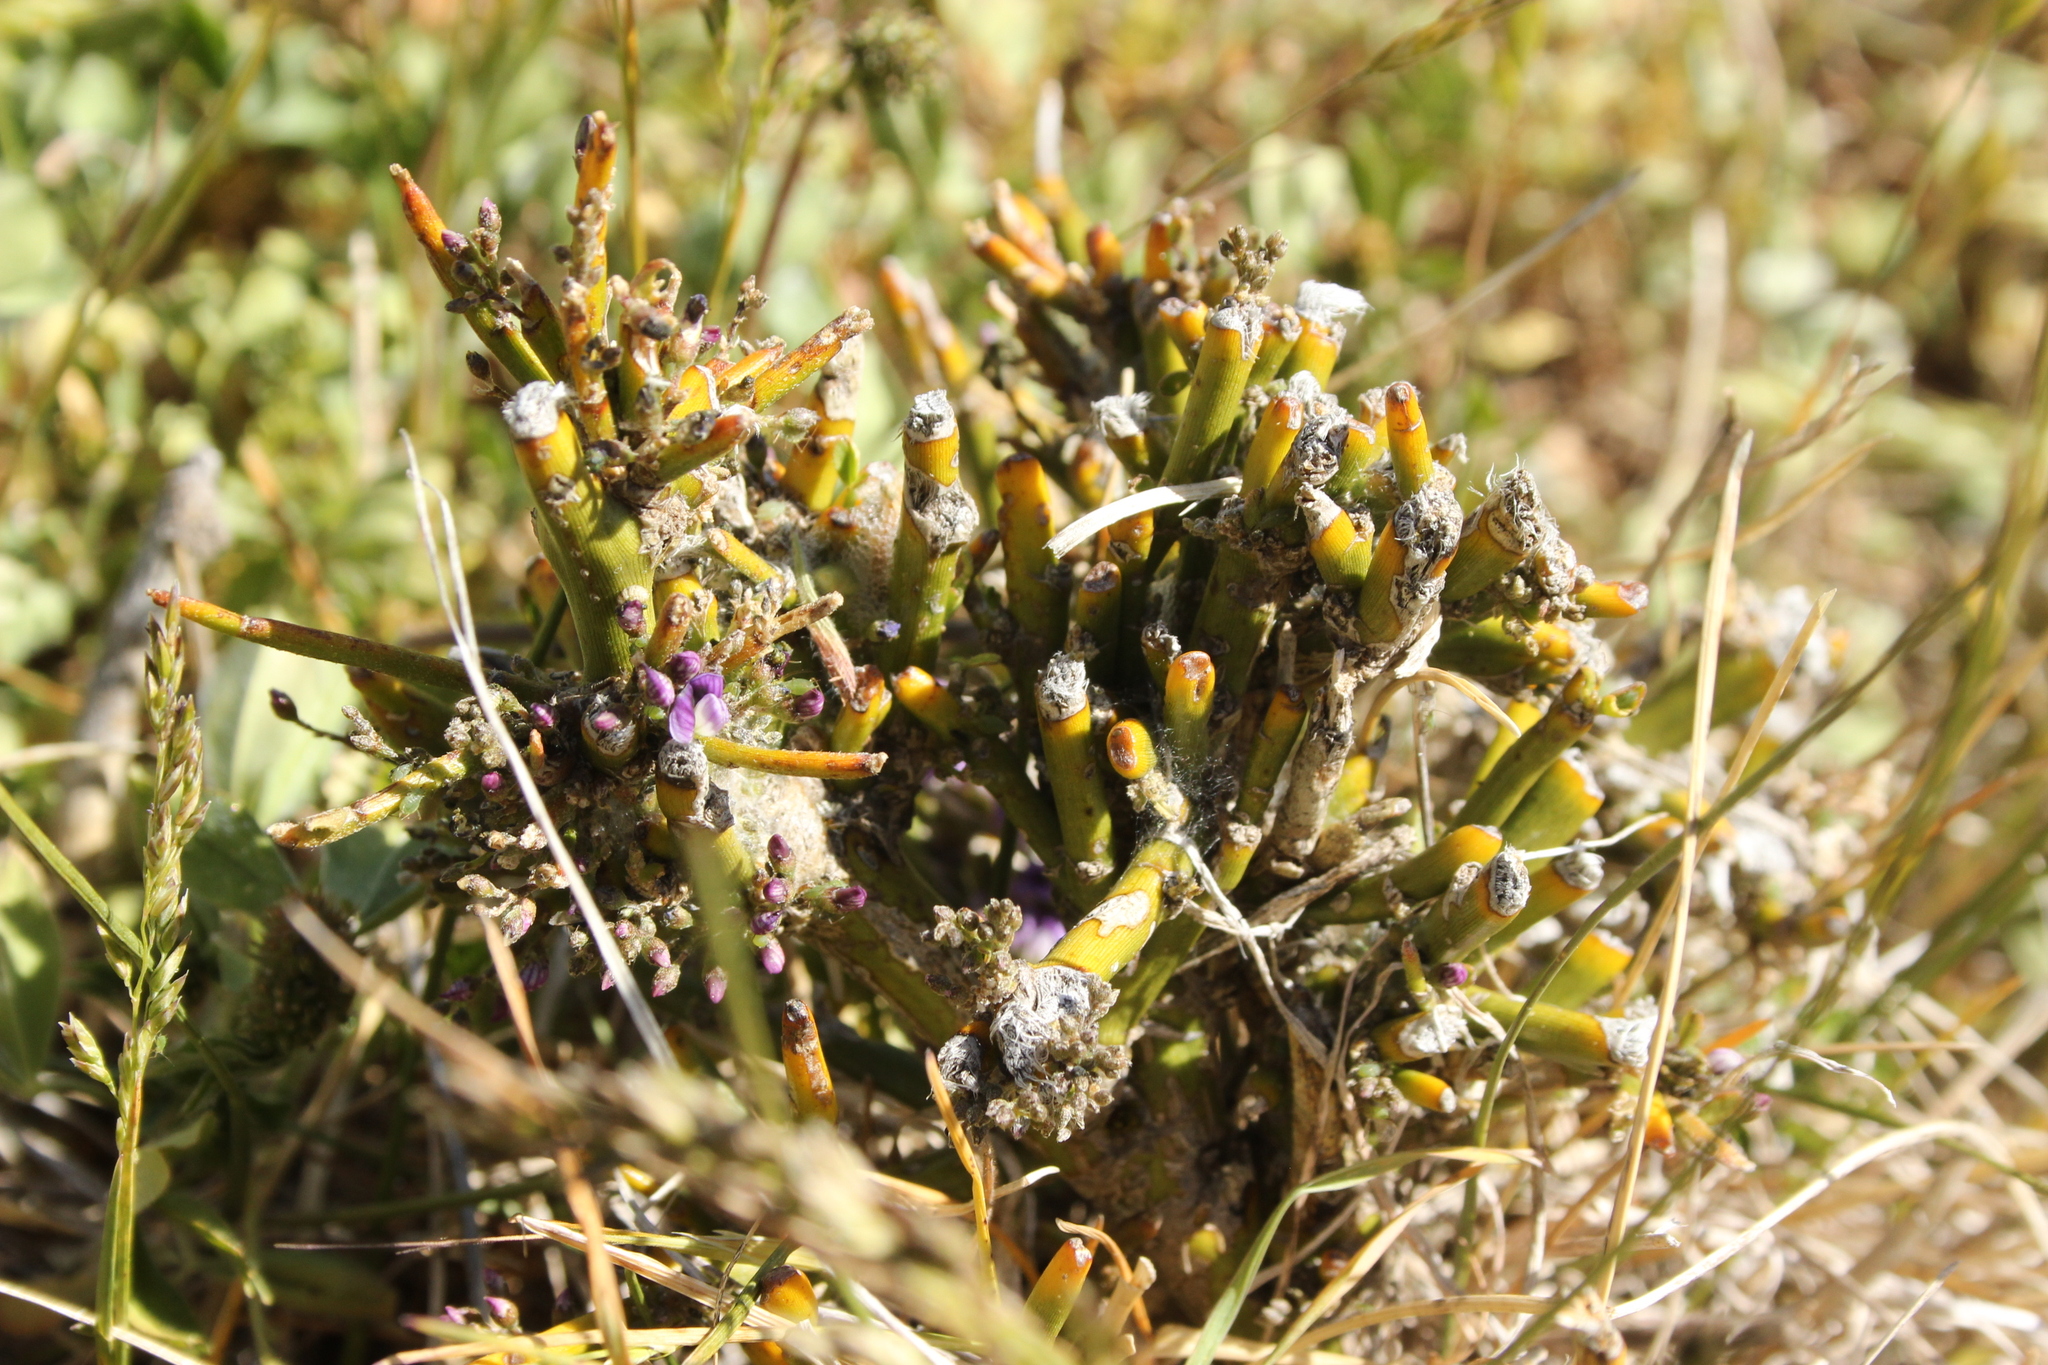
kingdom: Plantae
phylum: Tracheophyta
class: Magnoliopsida
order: Fabales
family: Fabaceae
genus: Carmichaelia
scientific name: Carmichaelia petriei
